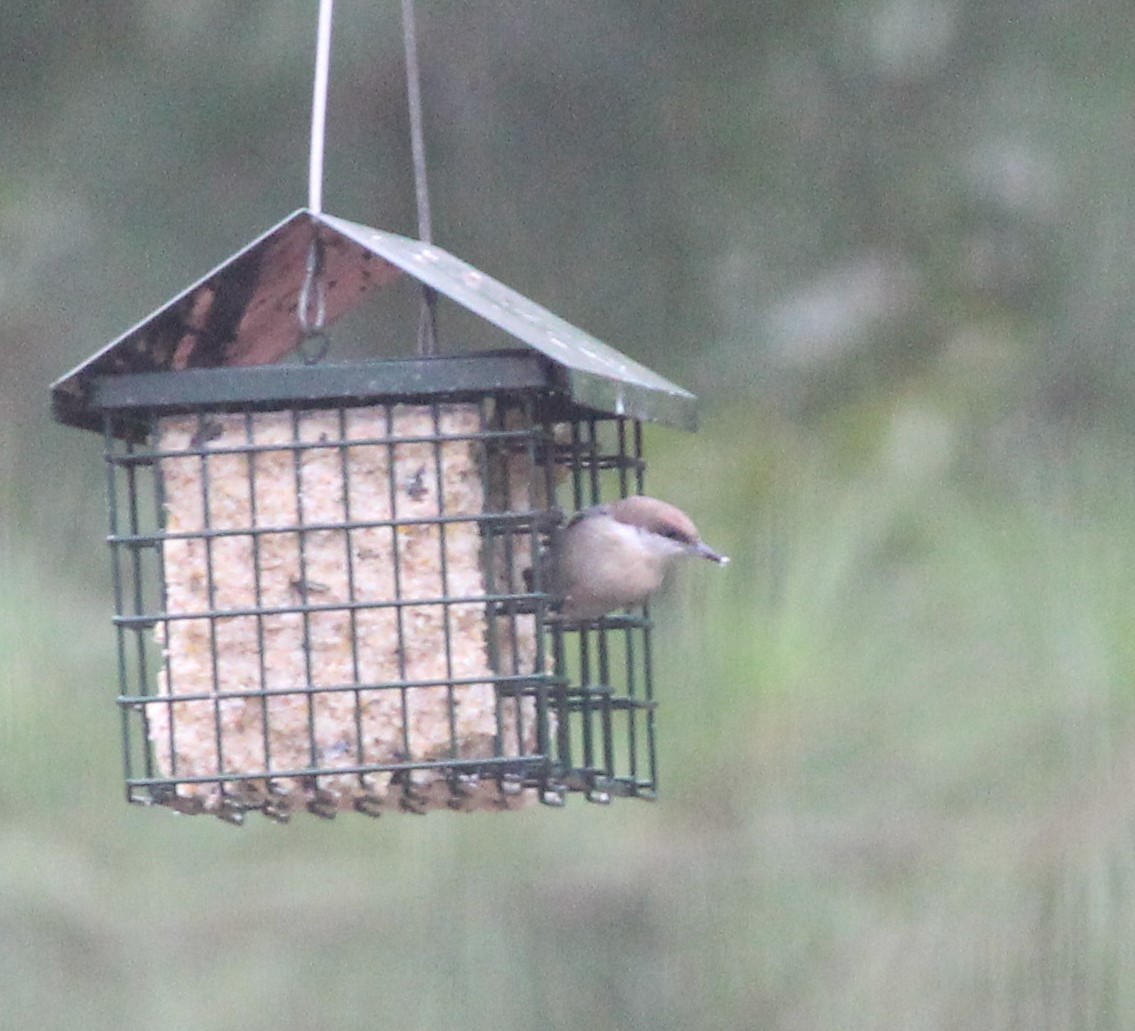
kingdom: Animalia
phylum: Chordata
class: Aves
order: Passeriformes
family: Sittidae
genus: Sitta
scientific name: Sitta pusilla
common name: Brown-headed nuthatch
